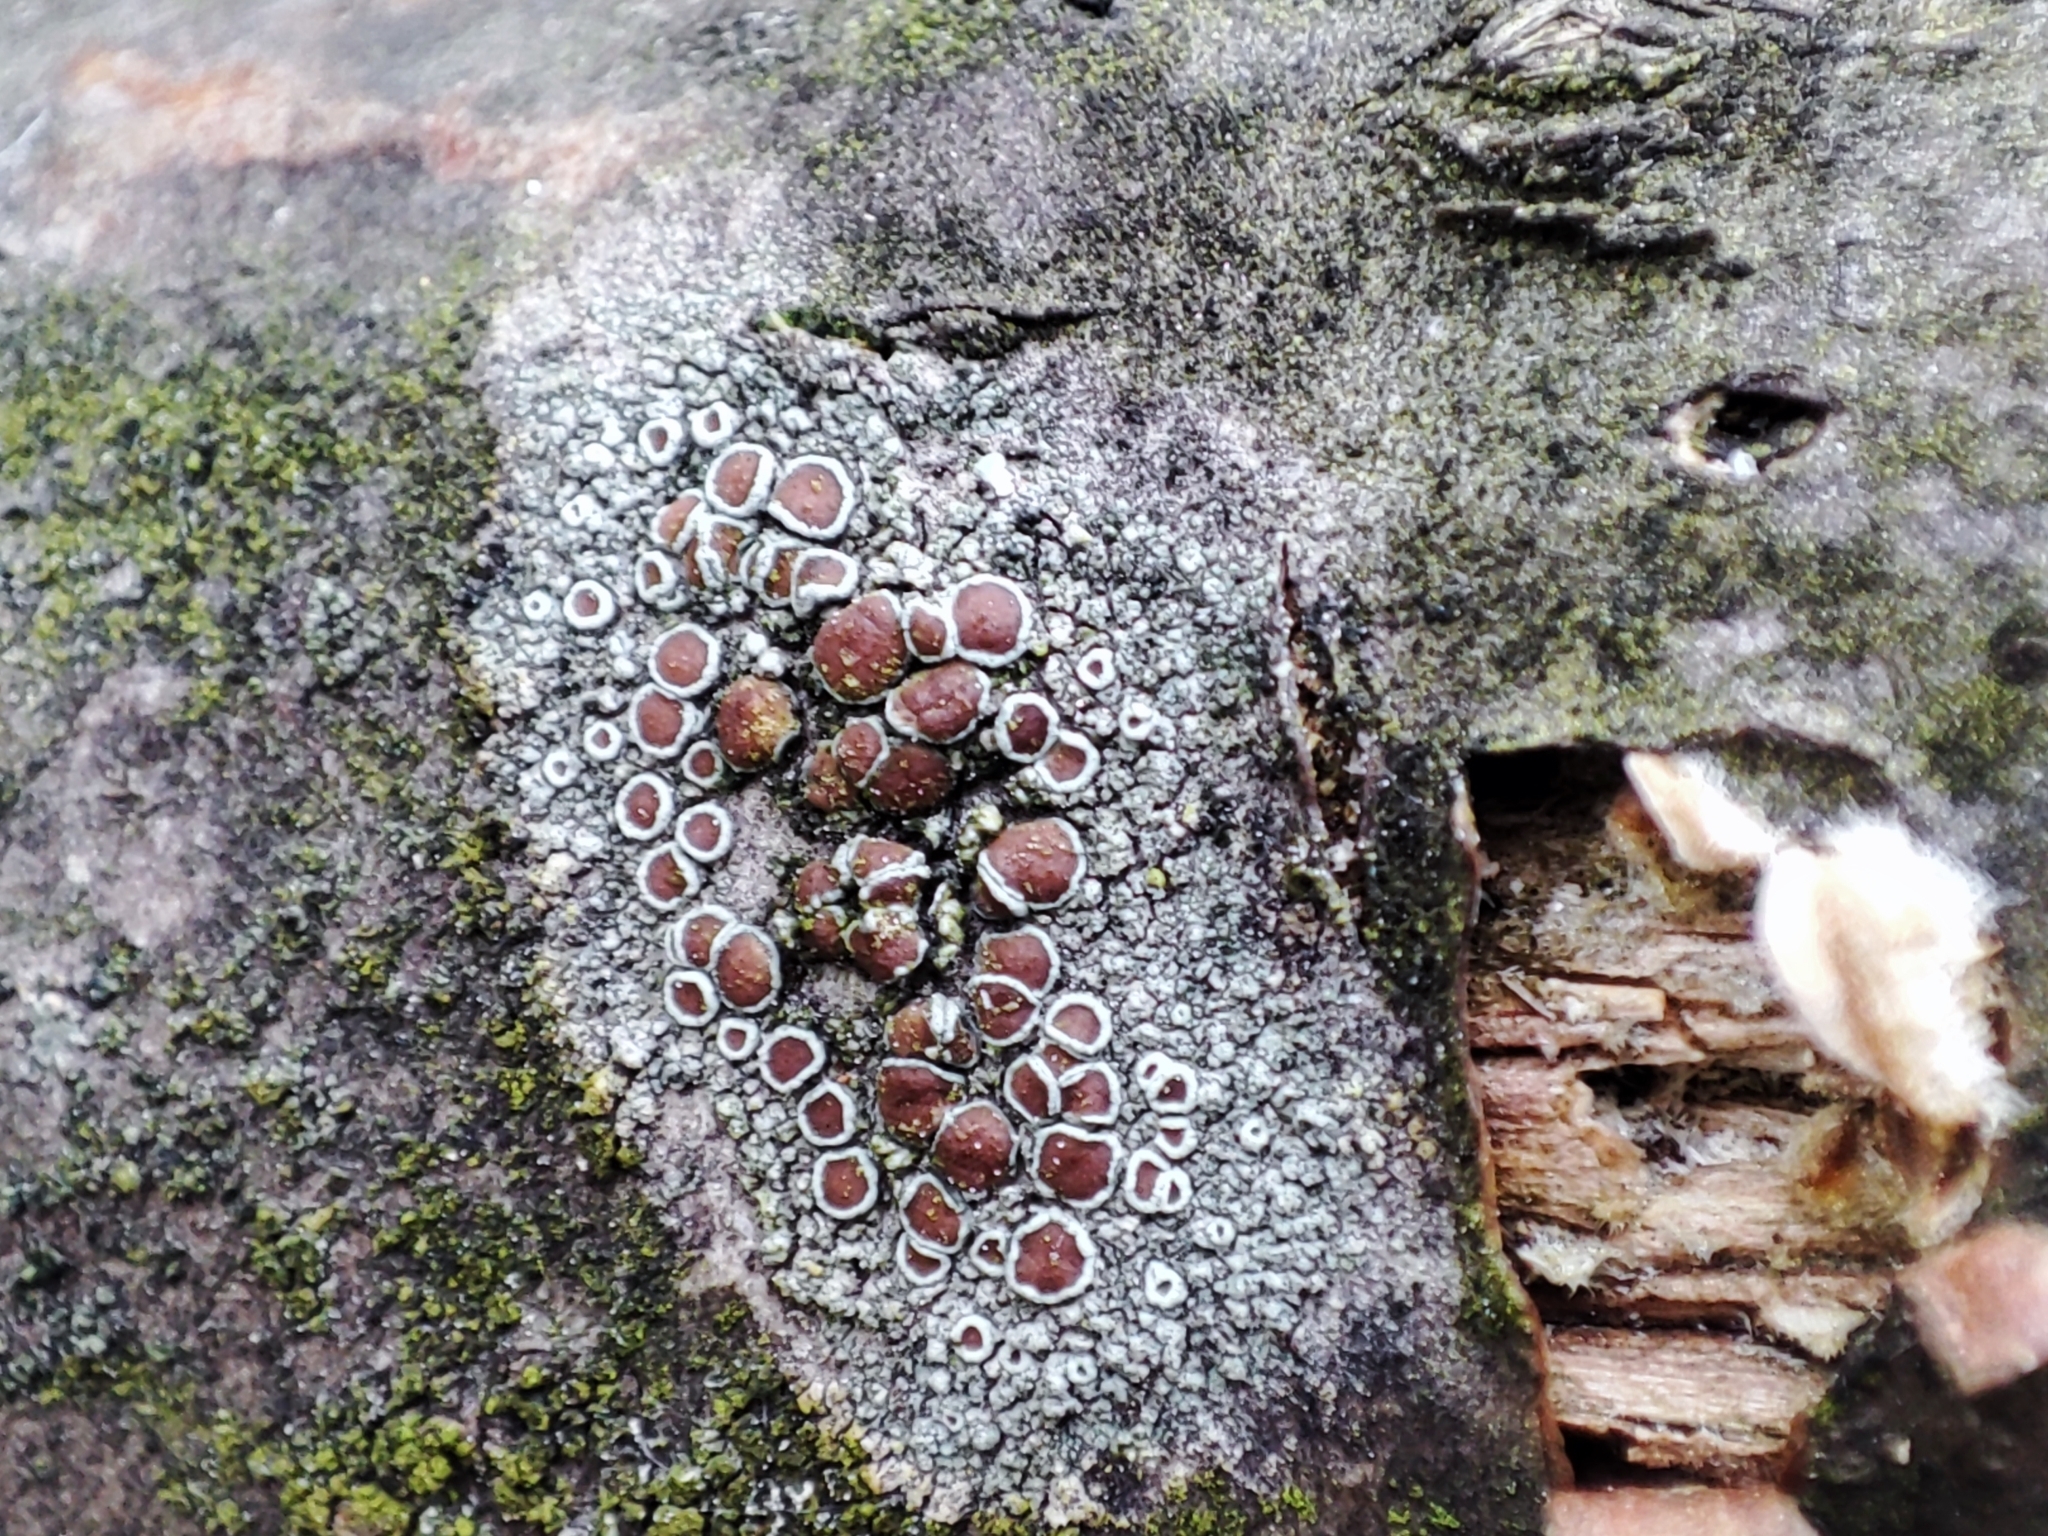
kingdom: Fungi
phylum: Ascomycota
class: Lecanoromycetes
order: Lecanorales
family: Lecanoraceae
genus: Lecanora
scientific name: Lecanora argentata
